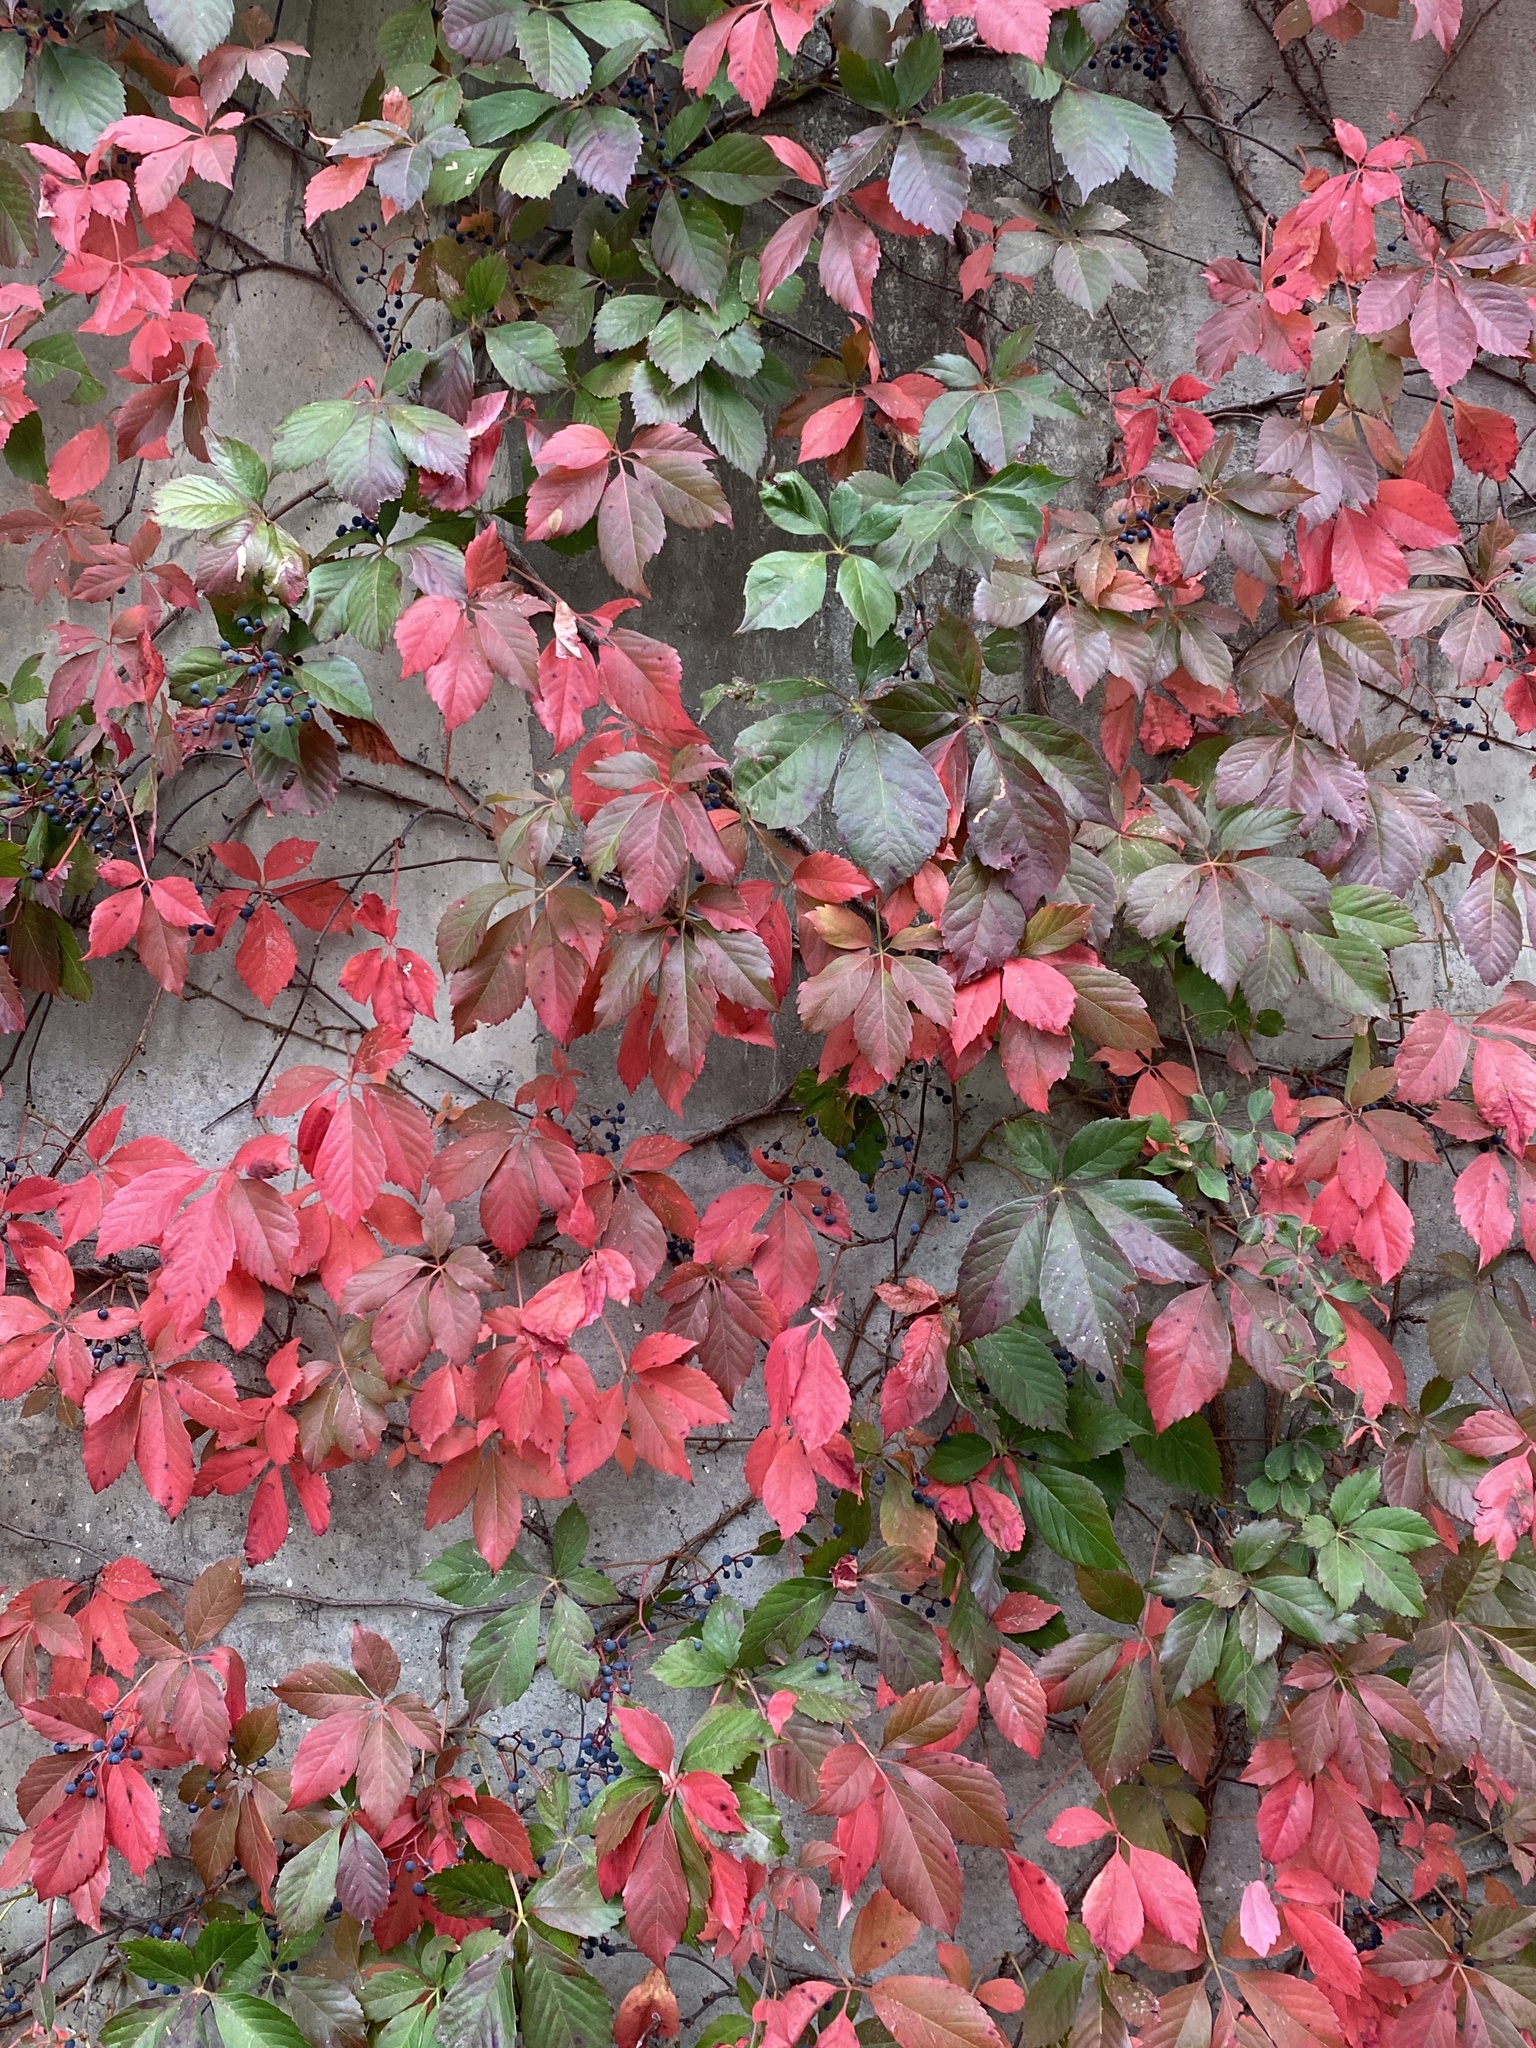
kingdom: Plantae
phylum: Tracheophyta
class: Magnoliopsida
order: Vitales
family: Vitaceae
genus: Parthenocissus
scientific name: Parthenocissus quinquefolia
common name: Virginia-creeper
